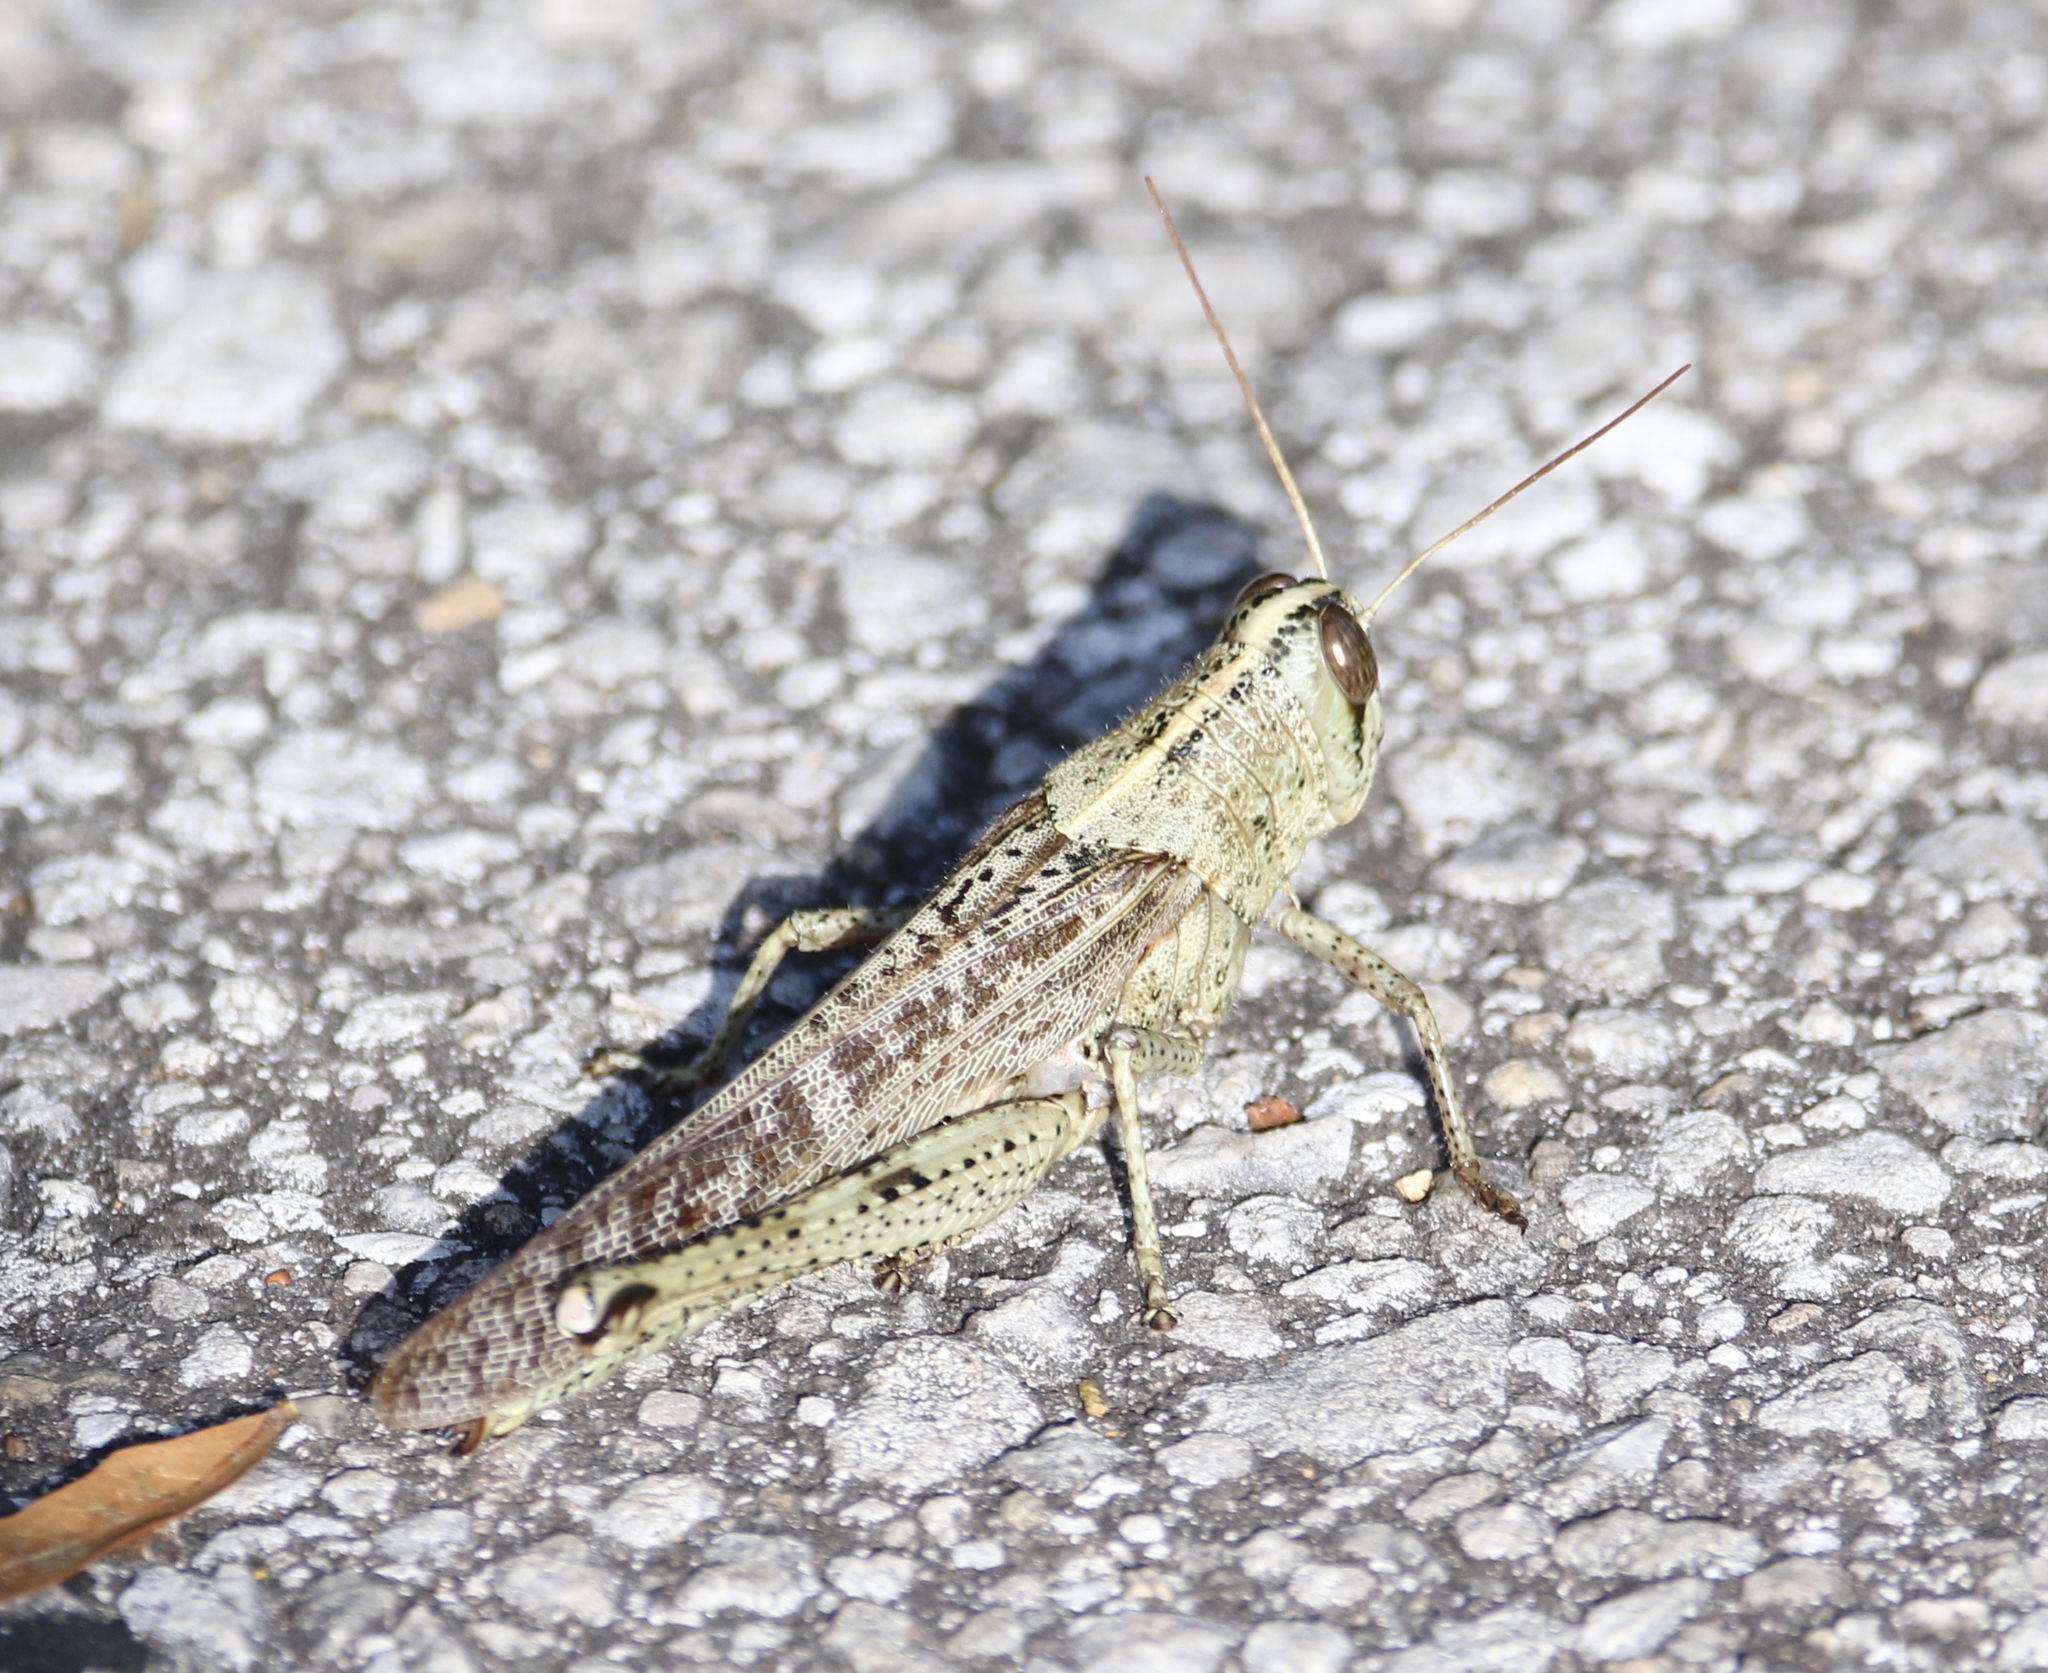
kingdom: Animalia
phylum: Arthropoda
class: Insecta
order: Orthoptera
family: Acrididae
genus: Schistocerca
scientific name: Schistocerca rubiginosa
